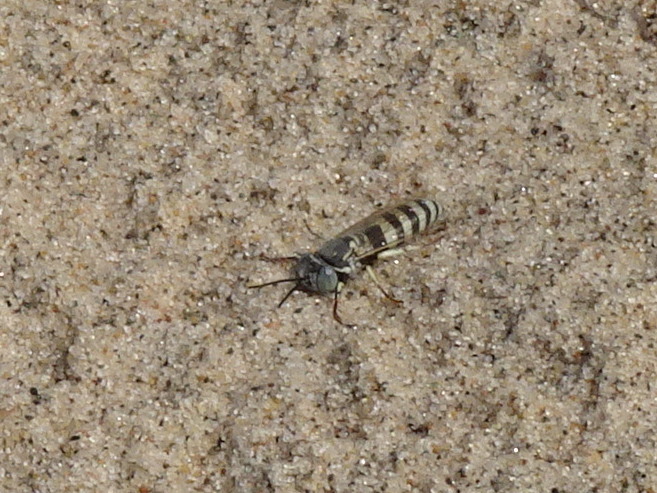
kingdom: Animalia
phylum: Arthropoda
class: Insecta
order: Hymenoptera
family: Crabronidae
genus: Microbembex
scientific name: Microbembex monodonta
